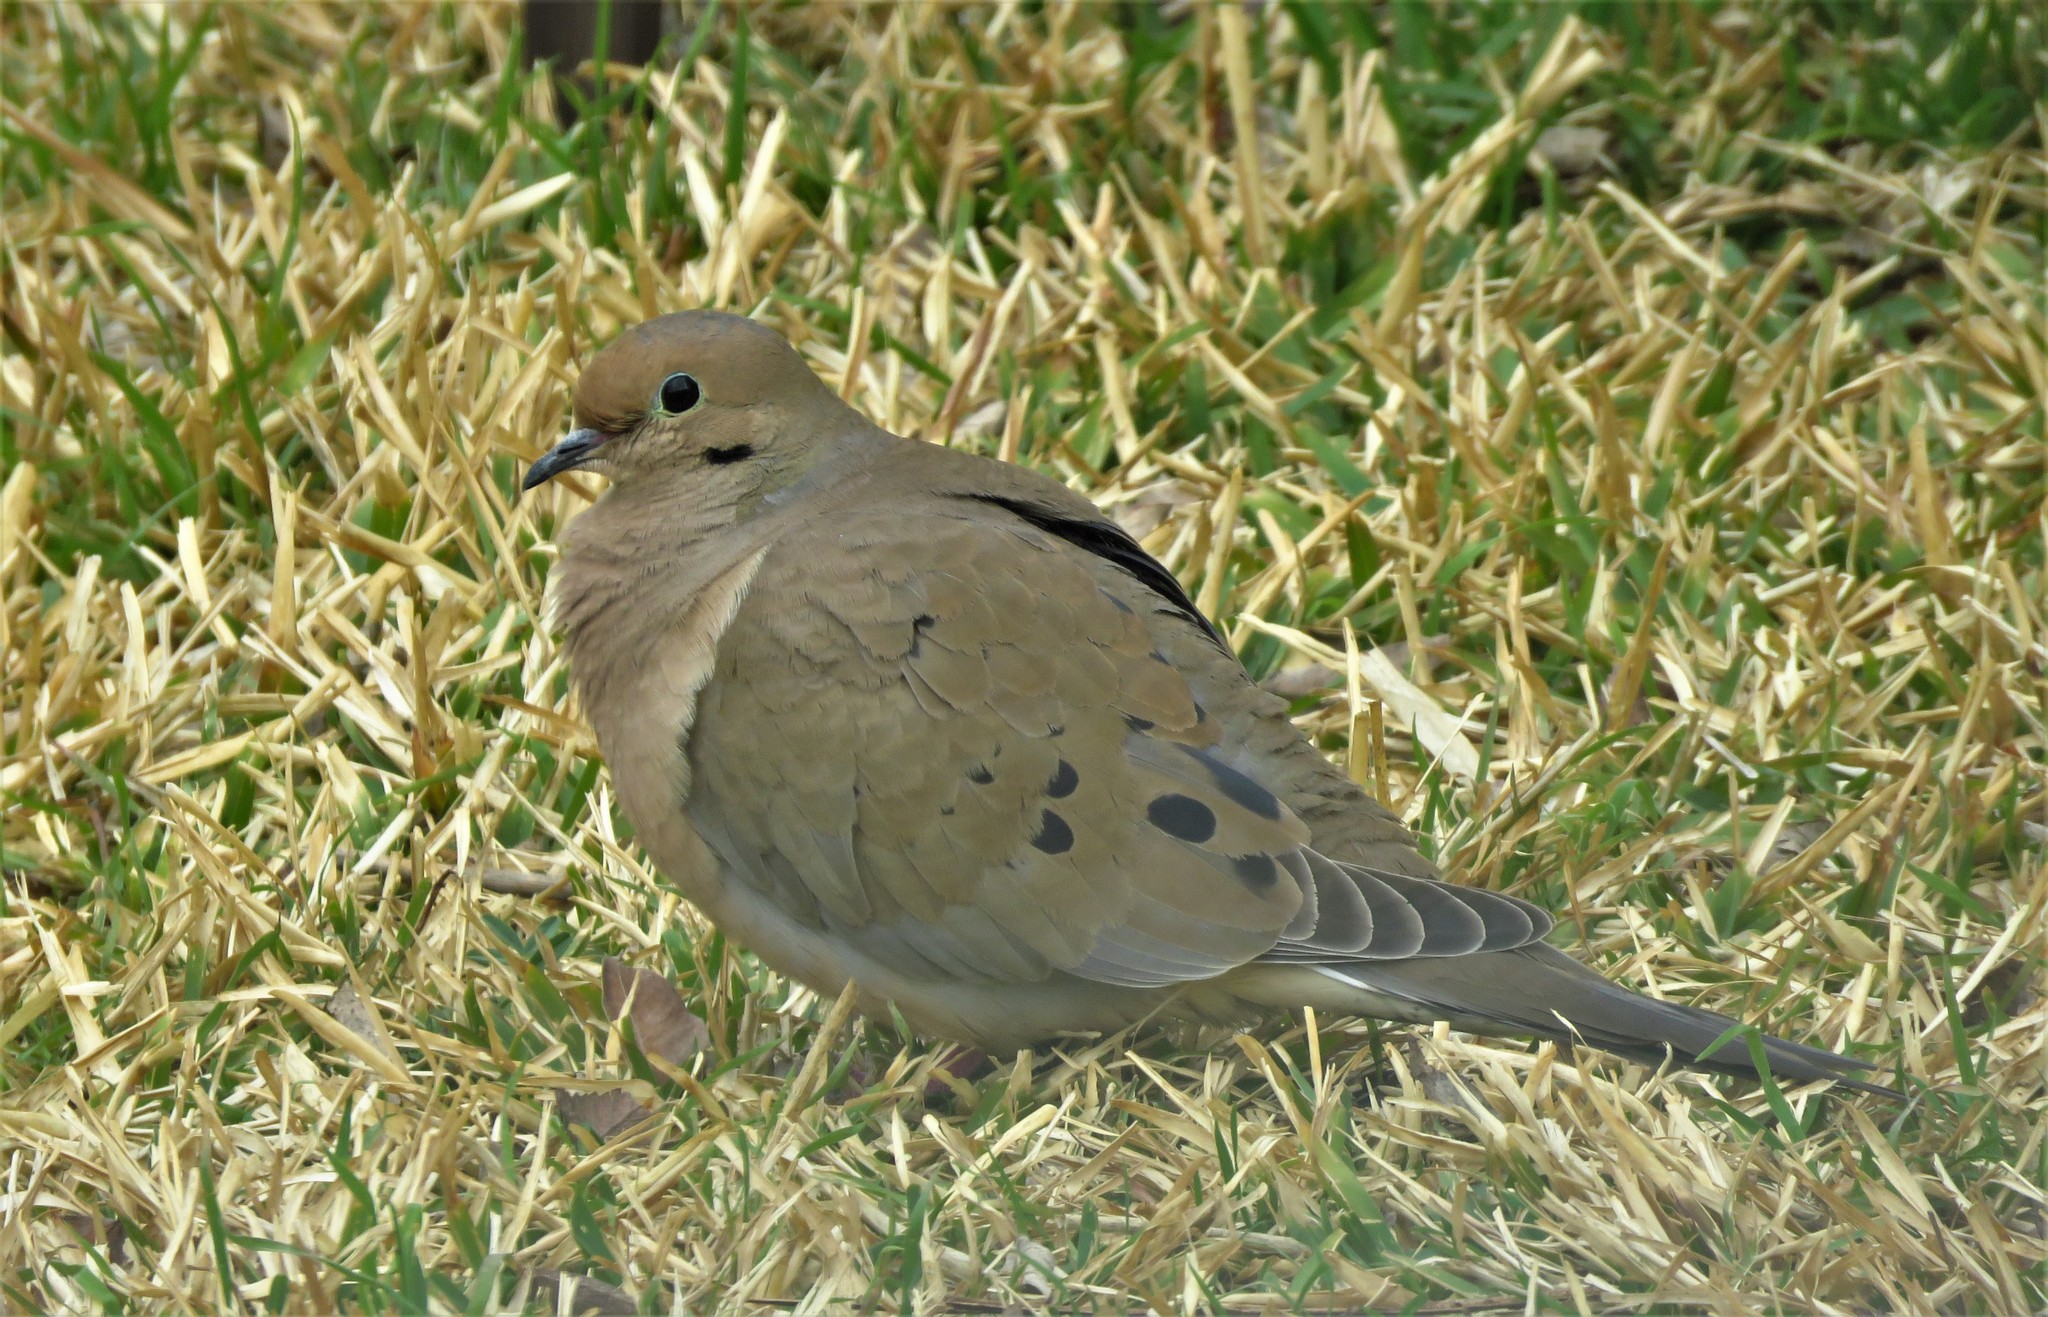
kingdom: Animalia
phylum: Chordata
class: Aves
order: Columbiformes
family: Columbidae
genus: Zenaida
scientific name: Zenaida macroura
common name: Mourning dove
